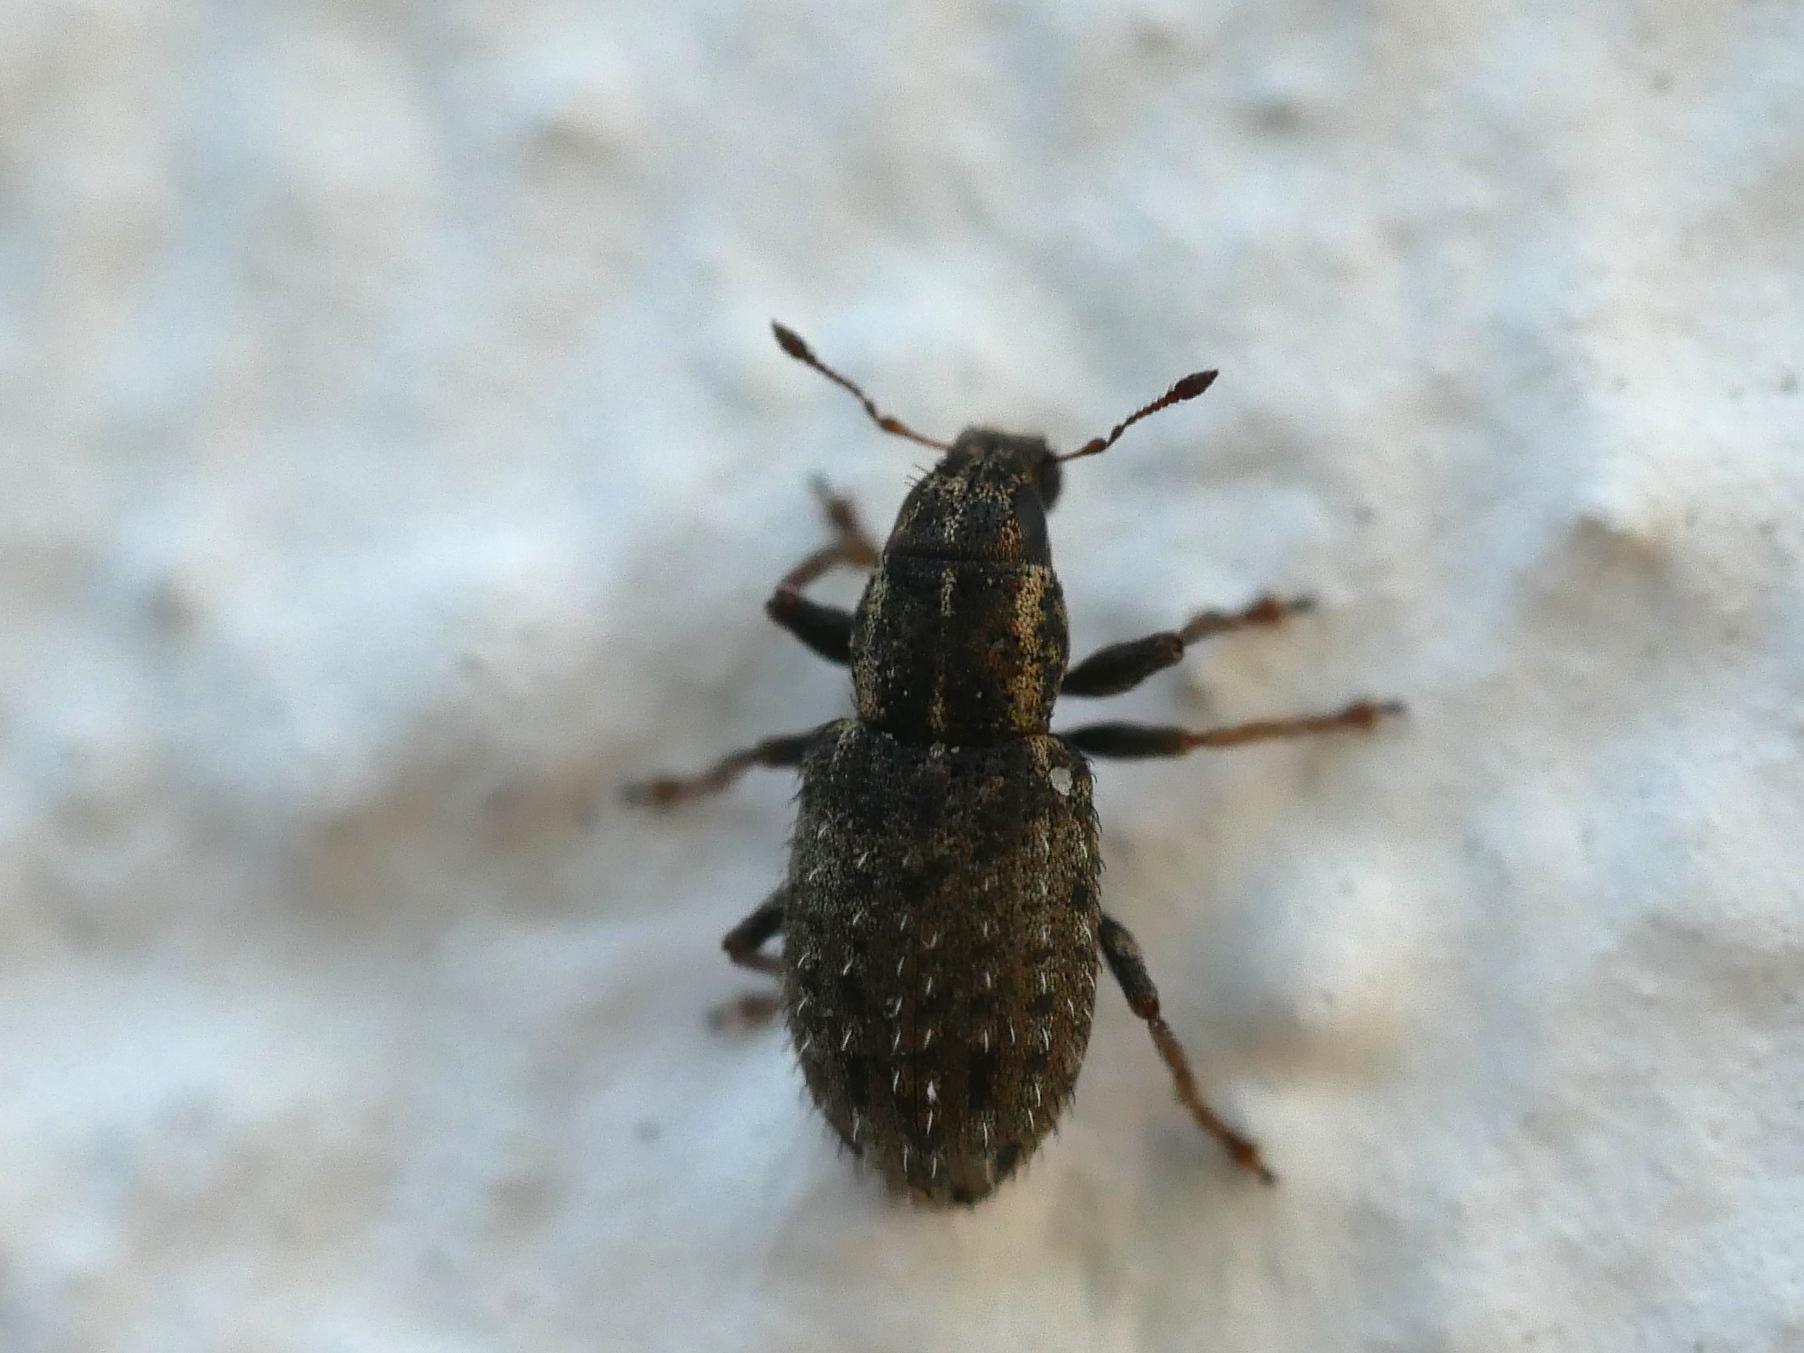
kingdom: Animalia
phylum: Arthropoda
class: Insecta
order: Coleoptera
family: Curculionidae
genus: Sitona
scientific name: Sitona hispidulus
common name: Clover weevil
